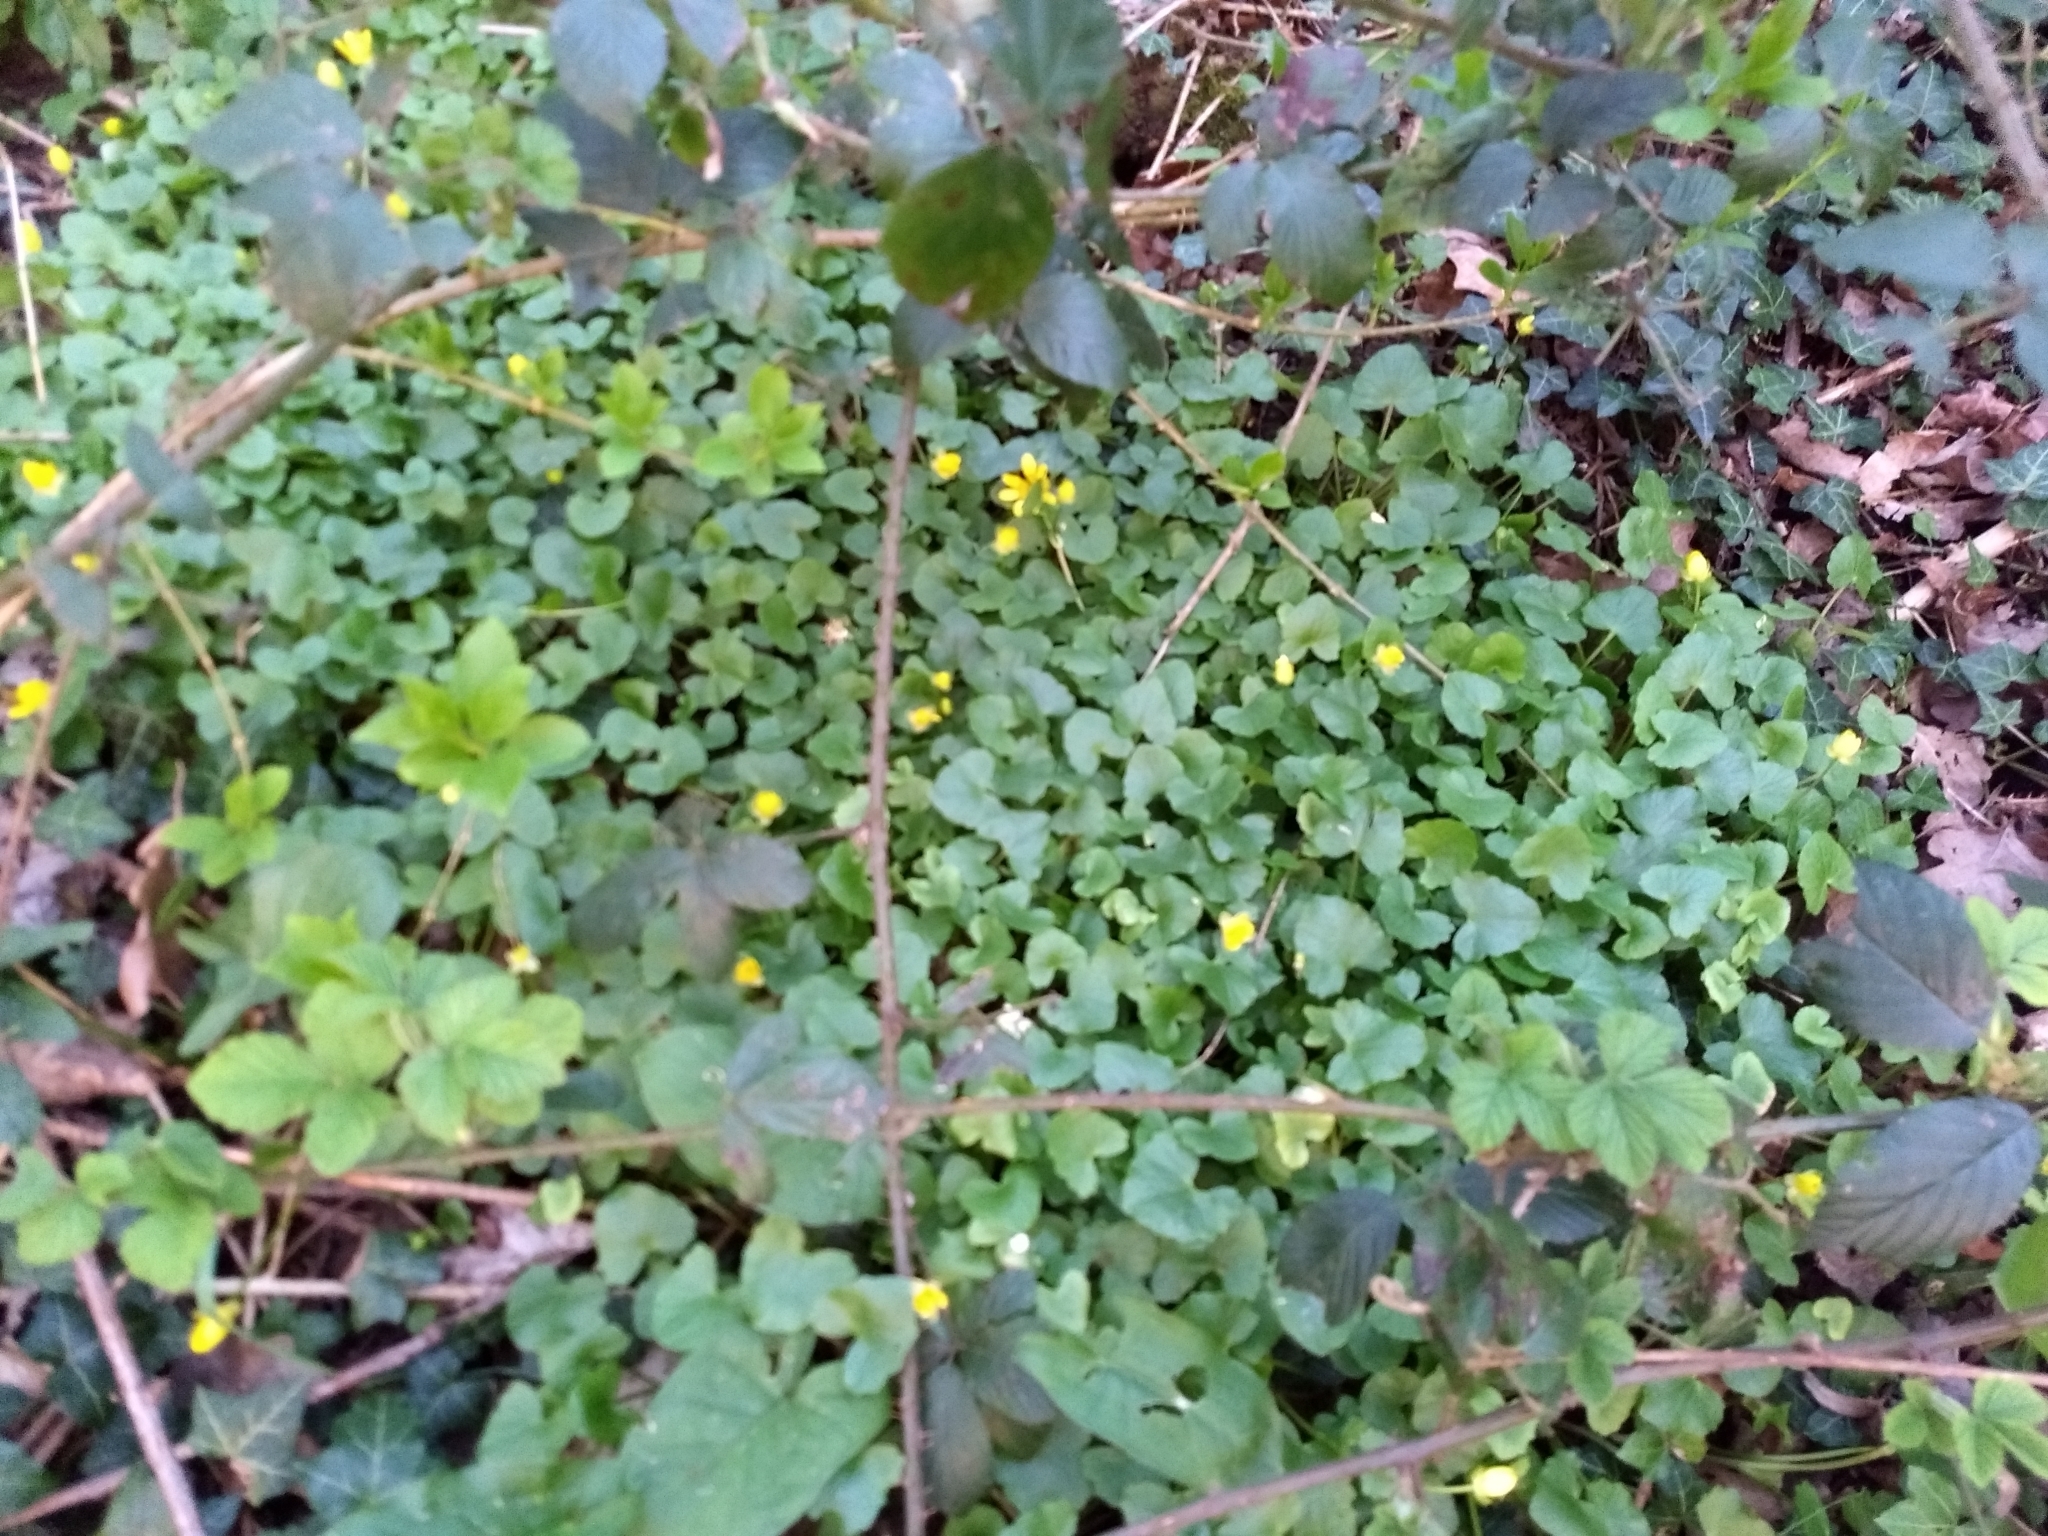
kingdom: Plantae
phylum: Tracheophyta
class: Magnoliopsida
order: Ranunculales
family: Ranunculaceae
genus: Ficaria
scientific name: Ficaria verna
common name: Lesser celandine
